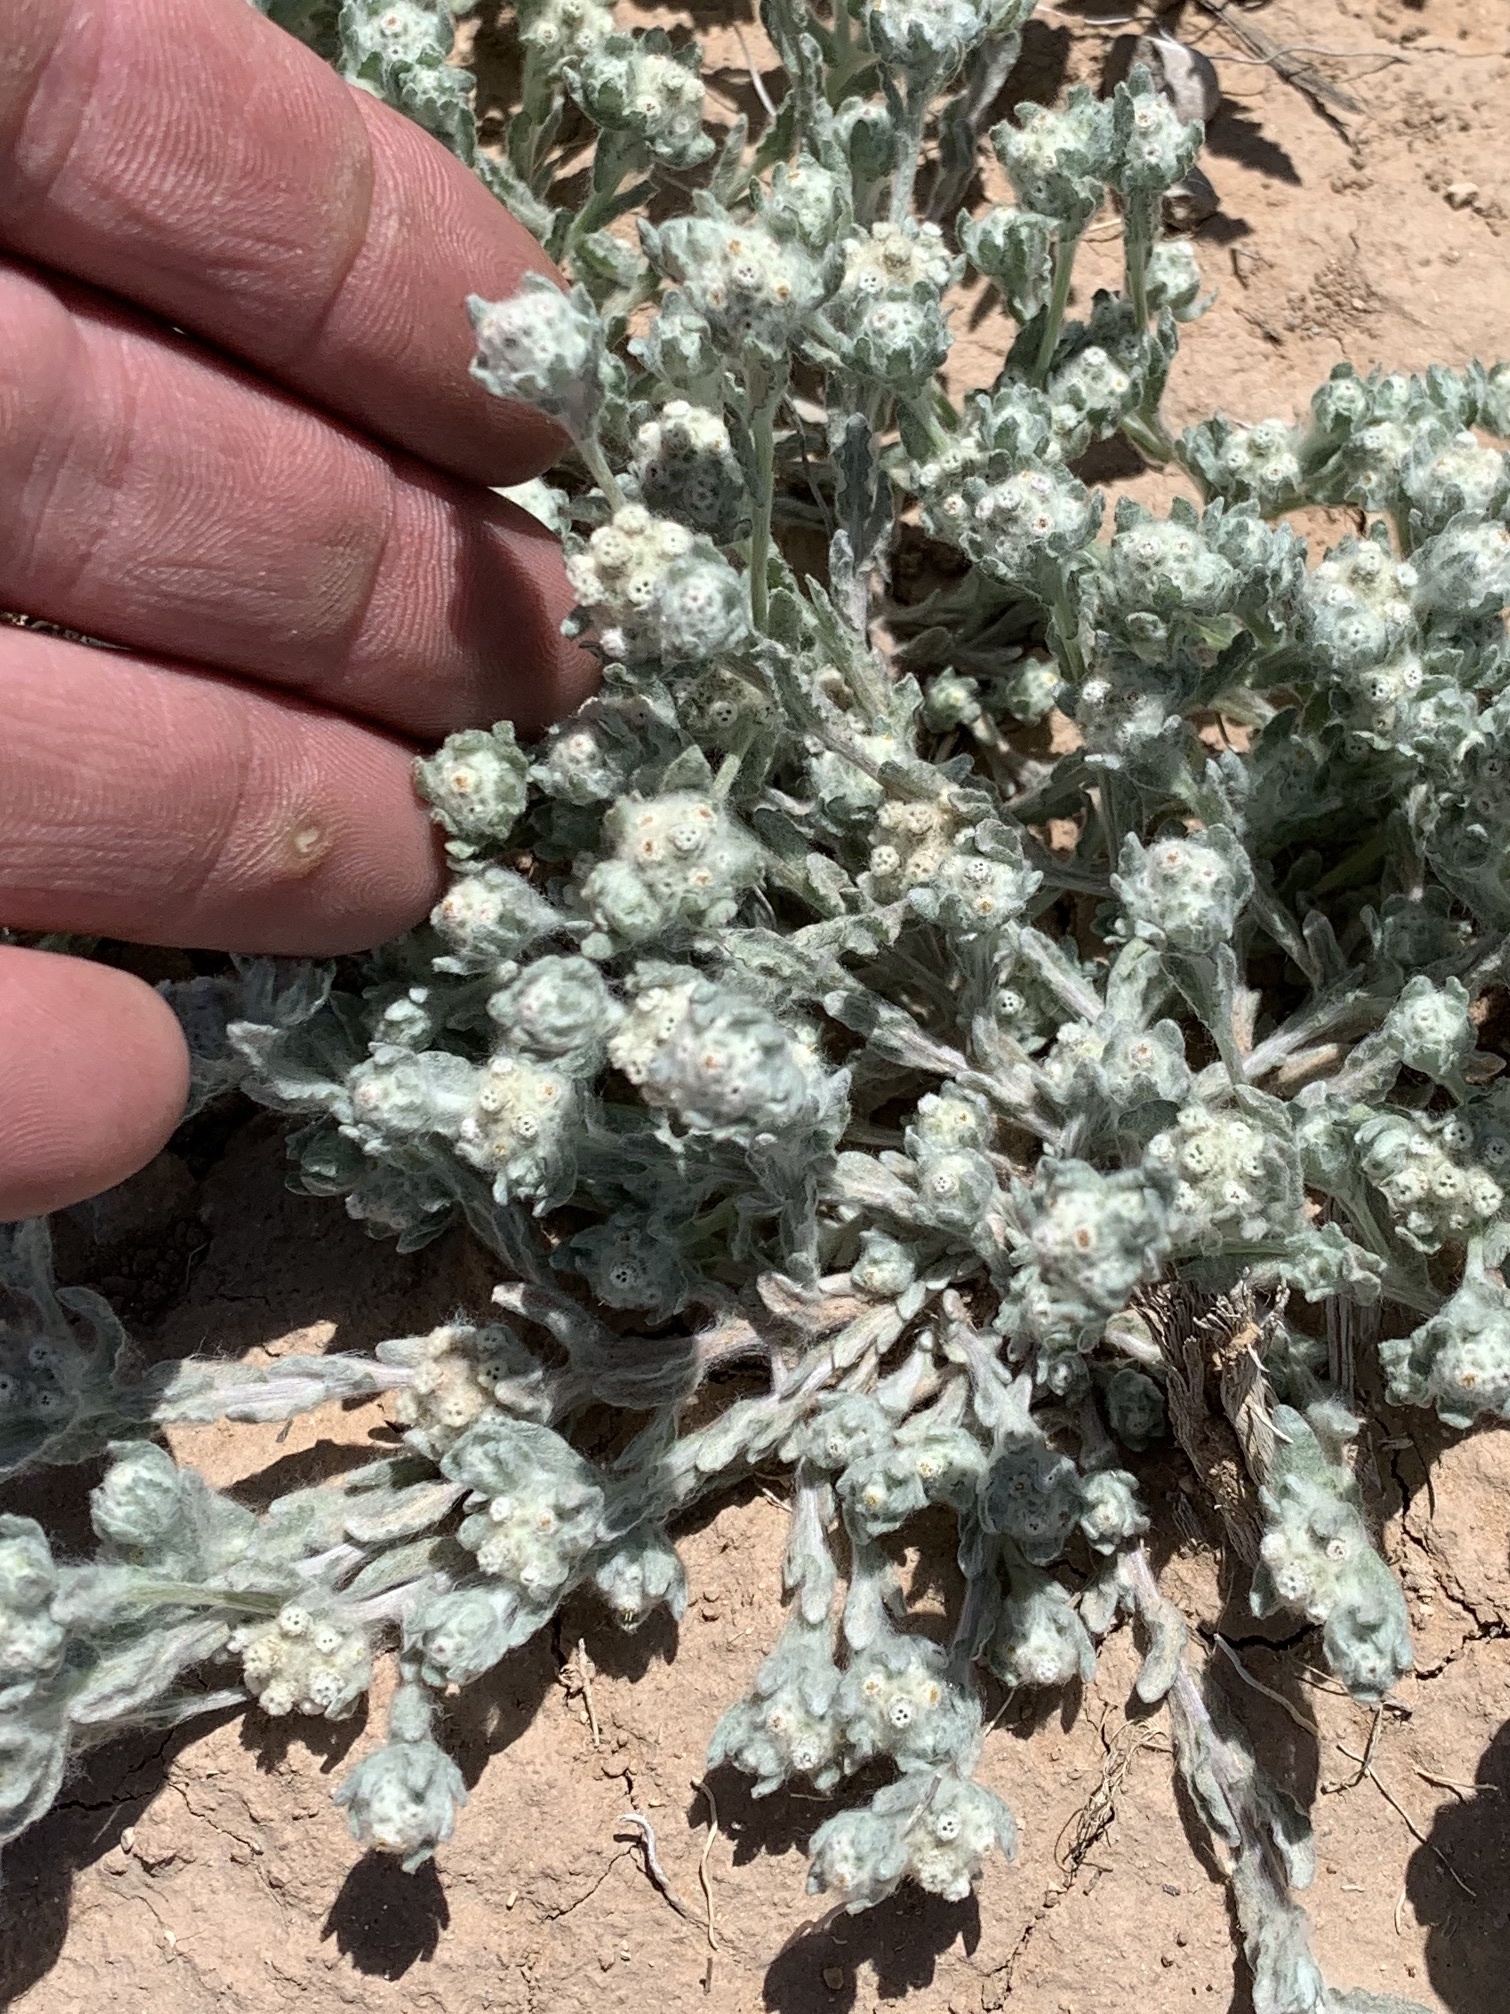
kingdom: Plantae
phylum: Tracheophyta
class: Magnoliopsida
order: Asterales
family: Asteraceae
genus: Diaperia
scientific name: Diaperia verna
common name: Many-stem rabbit-tobacco
